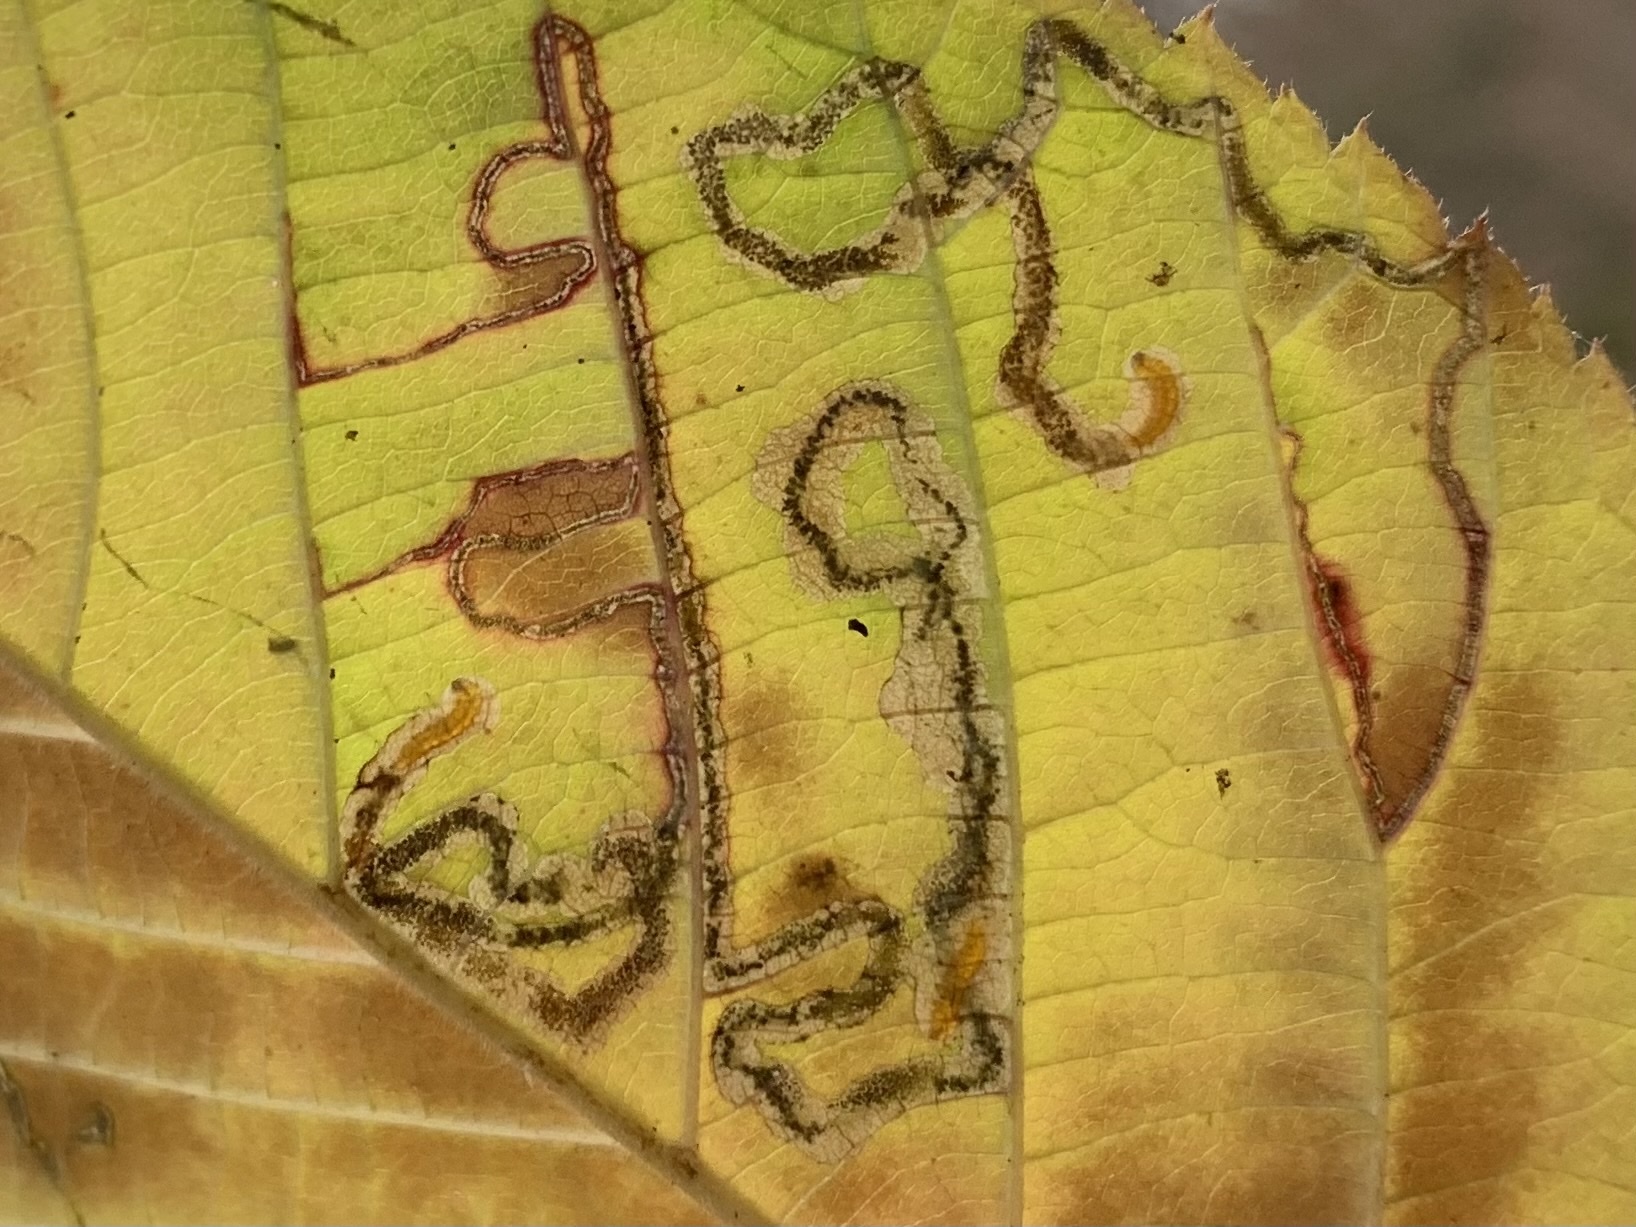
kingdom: Animalia
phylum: Arthropoda
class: Insecta
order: Lepidoptera
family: Nepticulidae
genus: Stigmella
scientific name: Stigmella villosella
